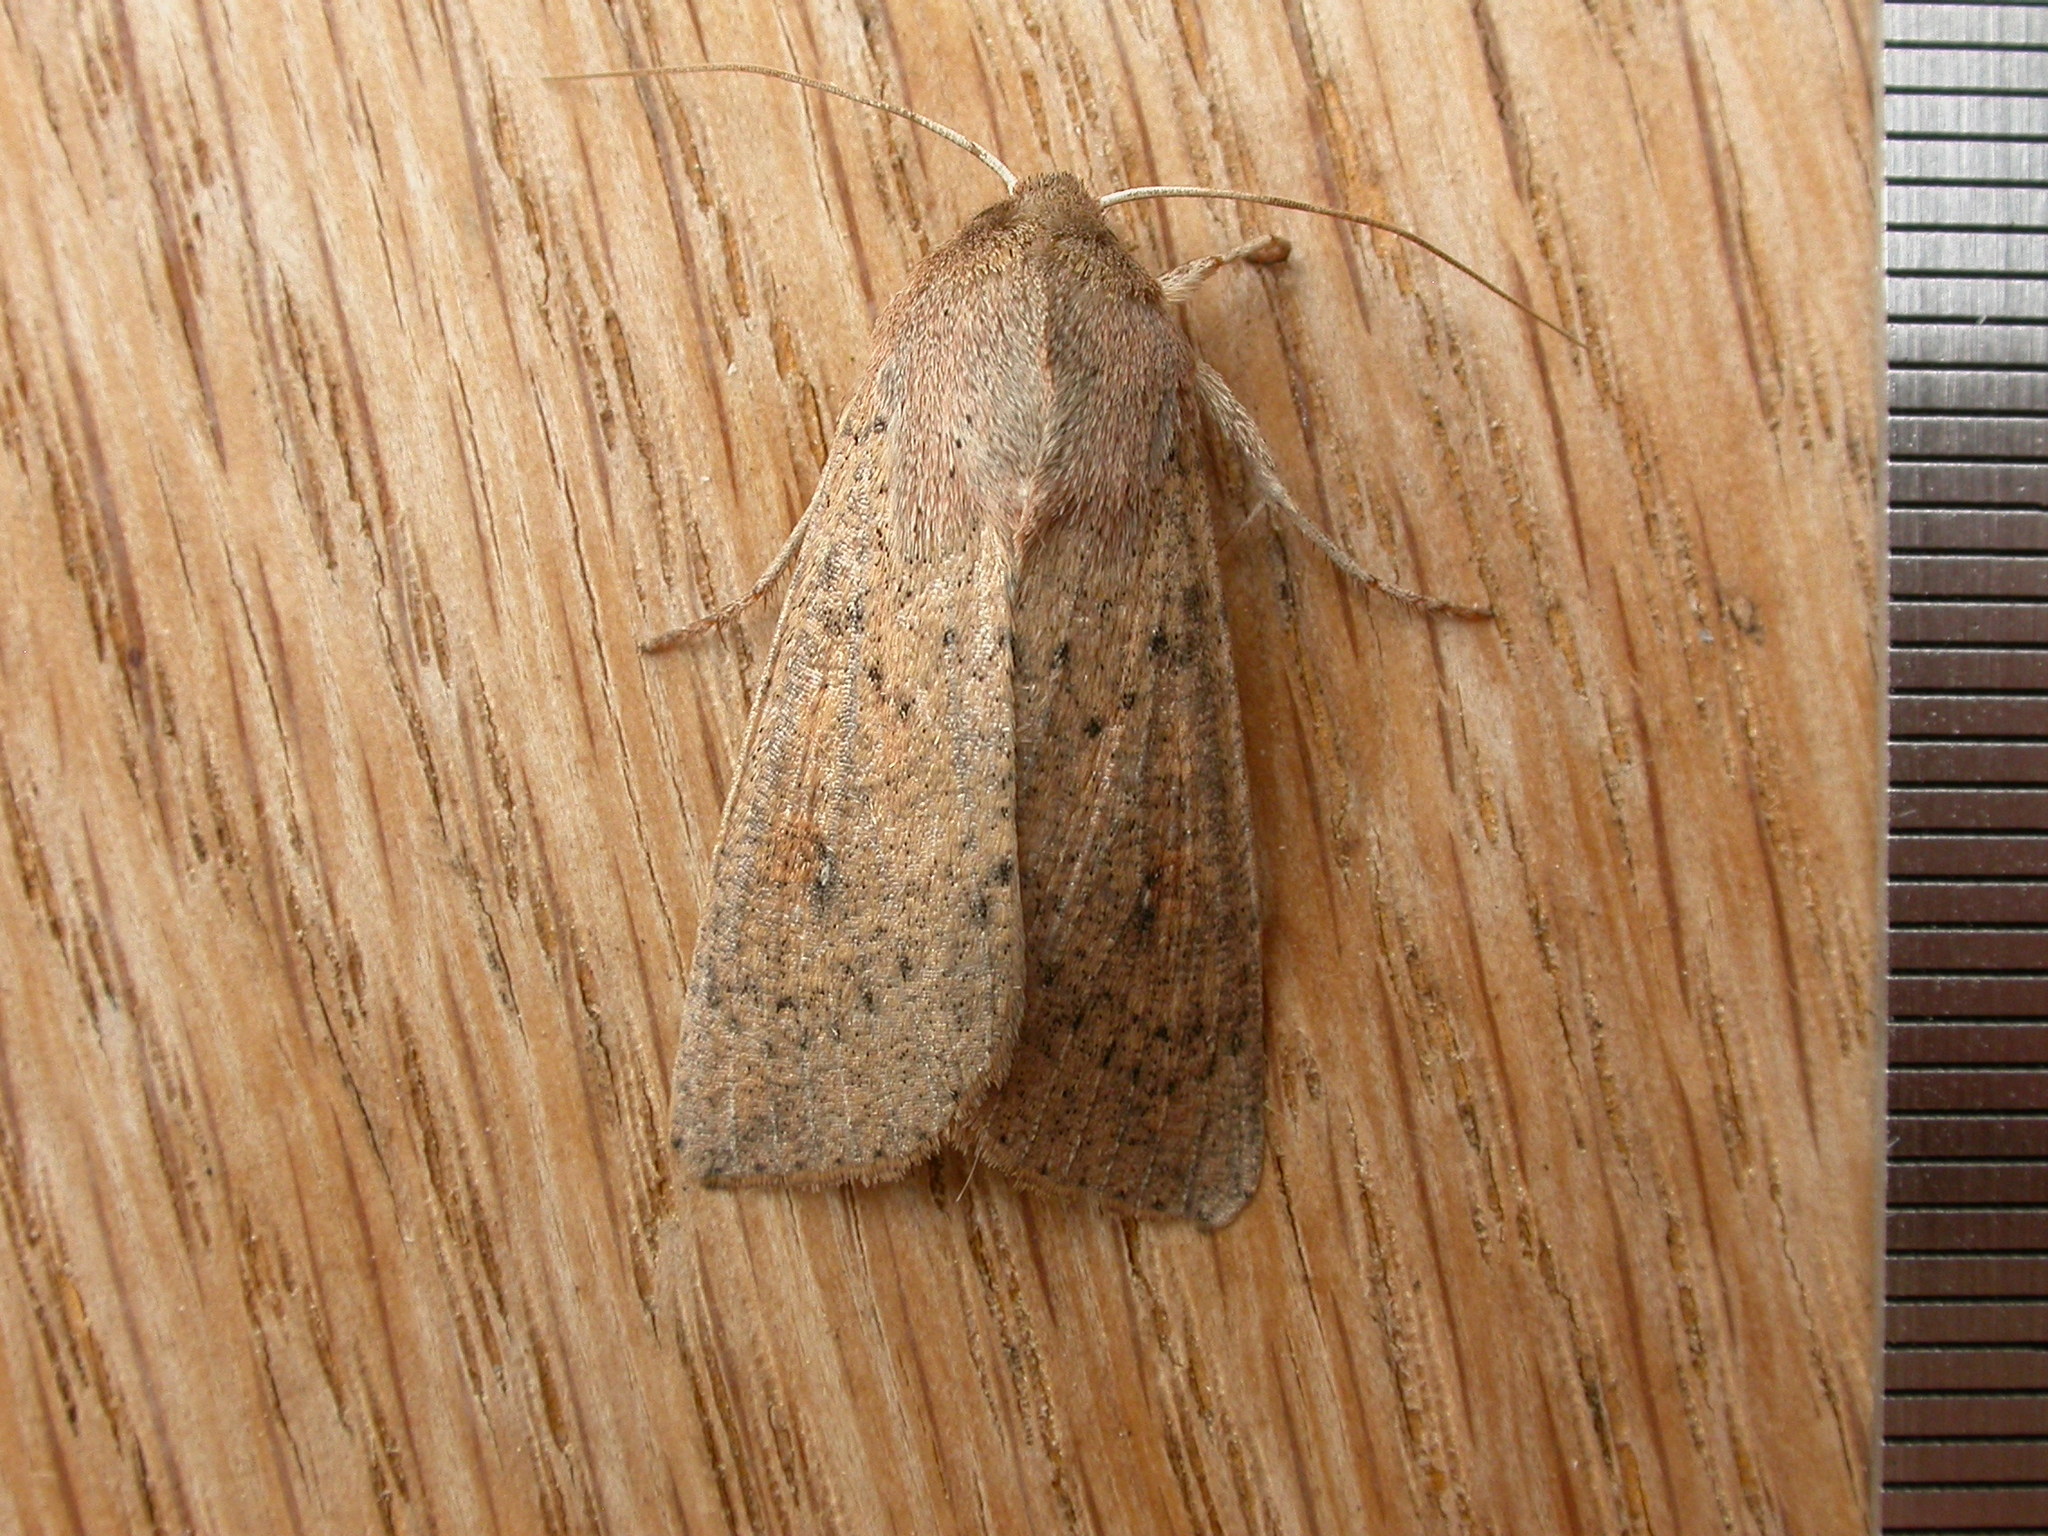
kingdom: Animalia
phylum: Arthropoda
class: Insecta
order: Lepidoptera
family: Noctuidae
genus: Mythimna
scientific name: Mythimna convecta
